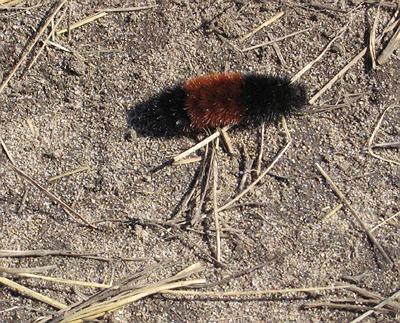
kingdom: Animalia
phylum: Arthropoda
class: Insecta
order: Lepidoptera
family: Erebidae
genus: Pyrrharctia
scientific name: Pyrrharctia isabella
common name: Isabella tiger moth
